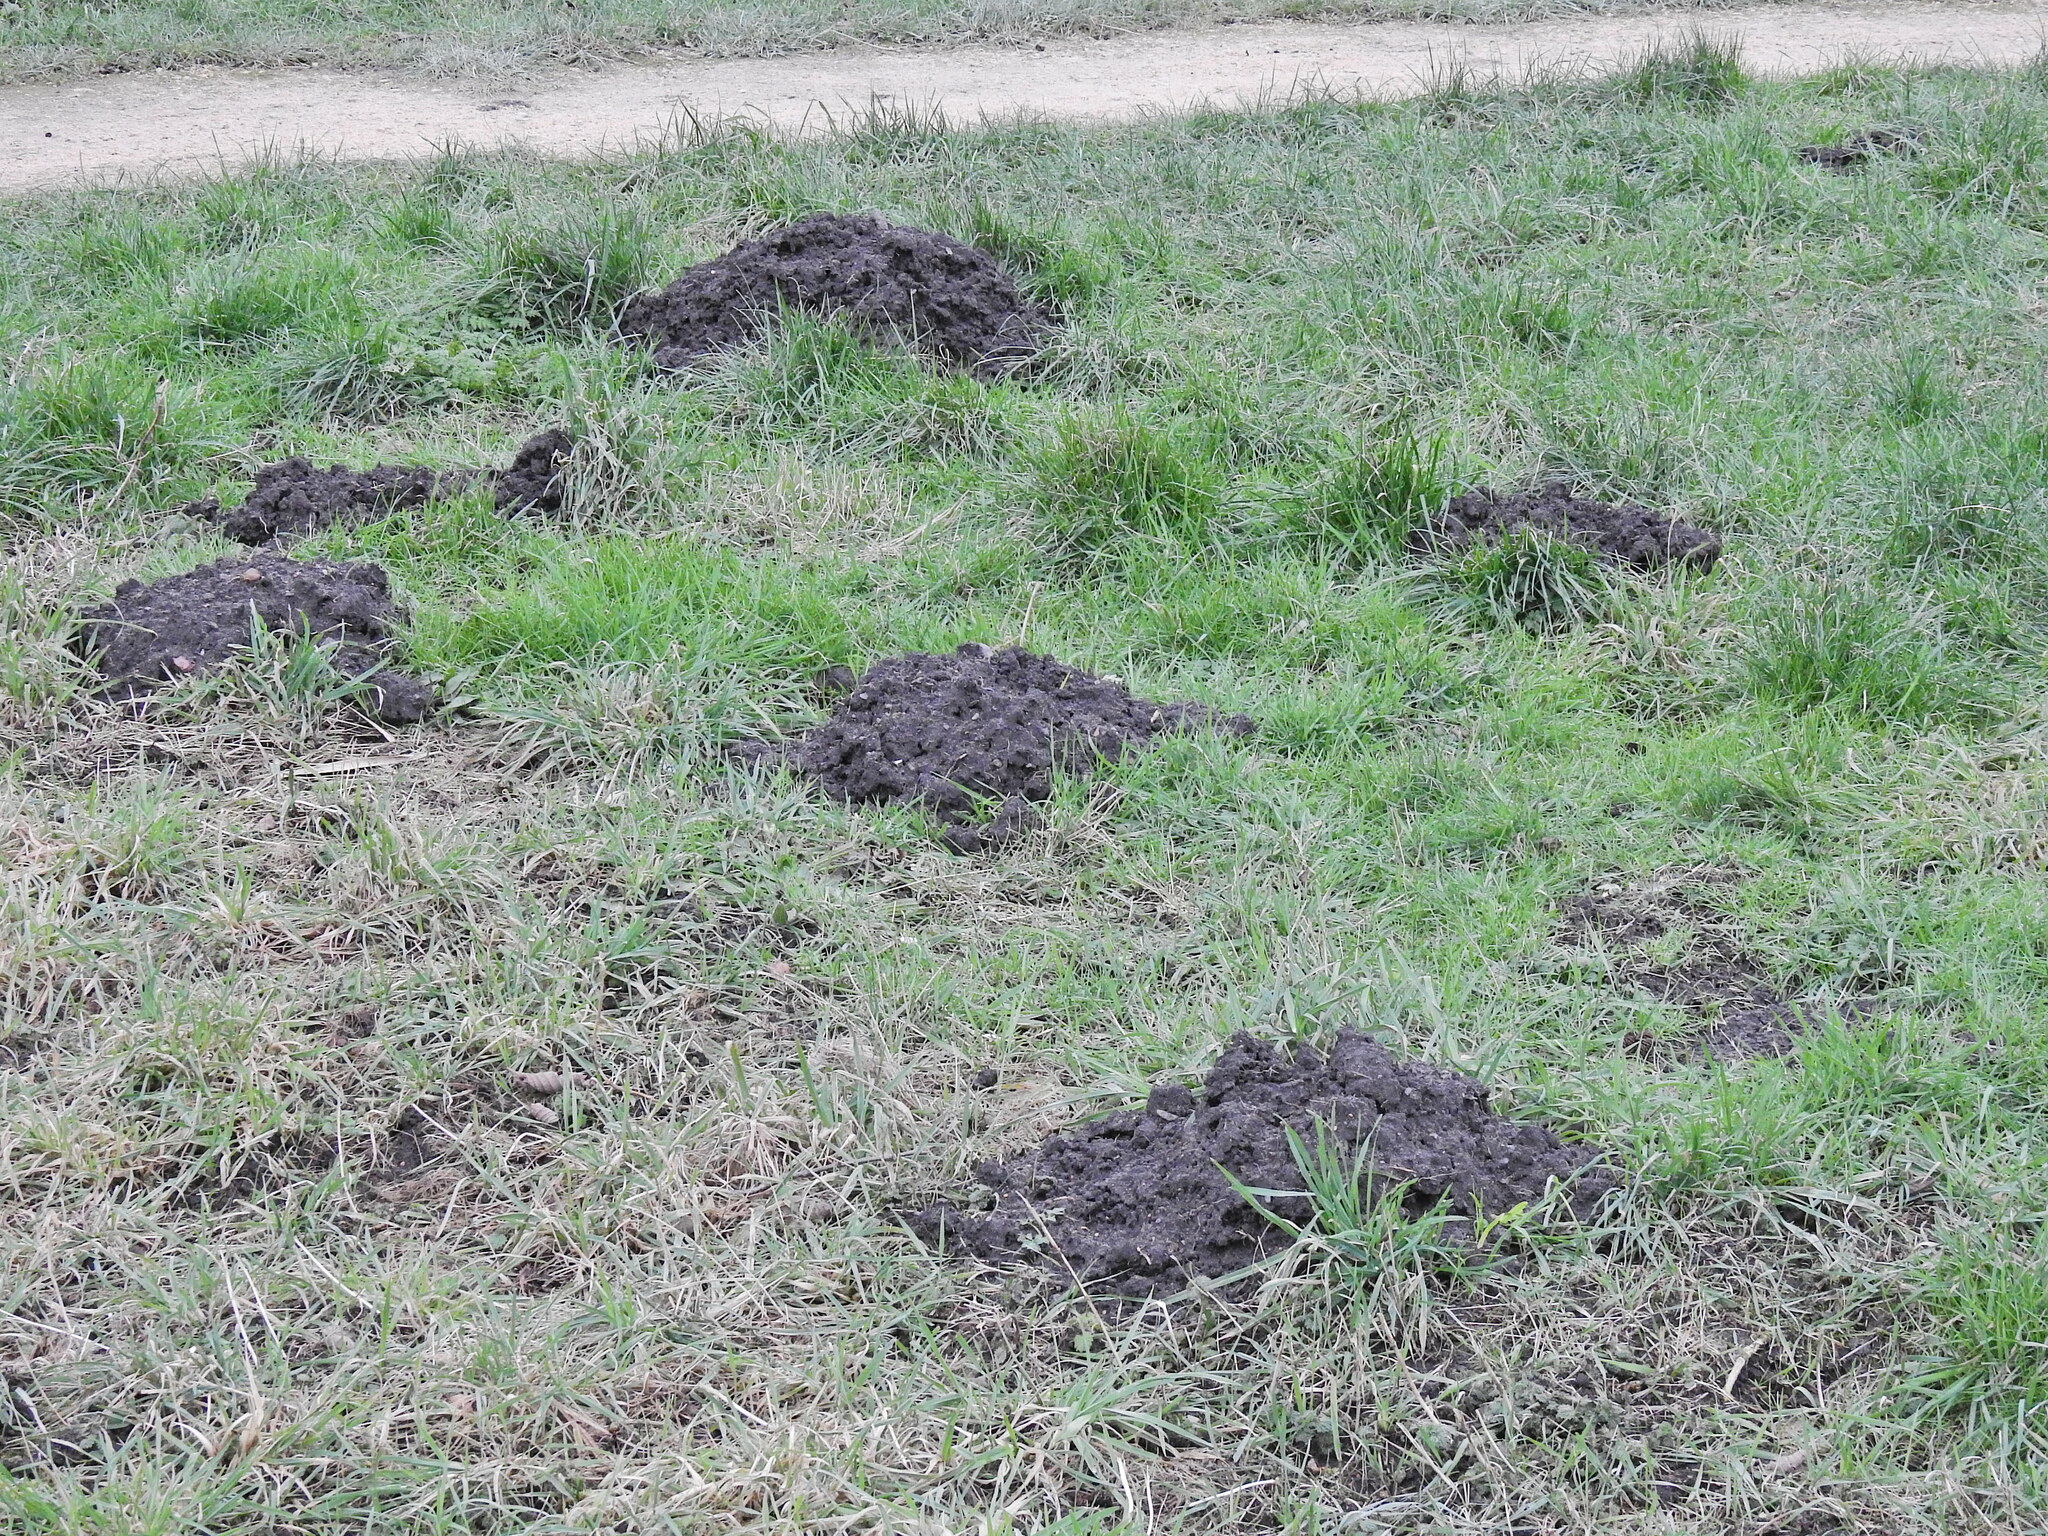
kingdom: Animalia
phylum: Chordata
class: Mammalia
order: Soricomorpha
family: Talpidae
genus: Talpa
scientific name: Talpa europaea
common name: European mole
